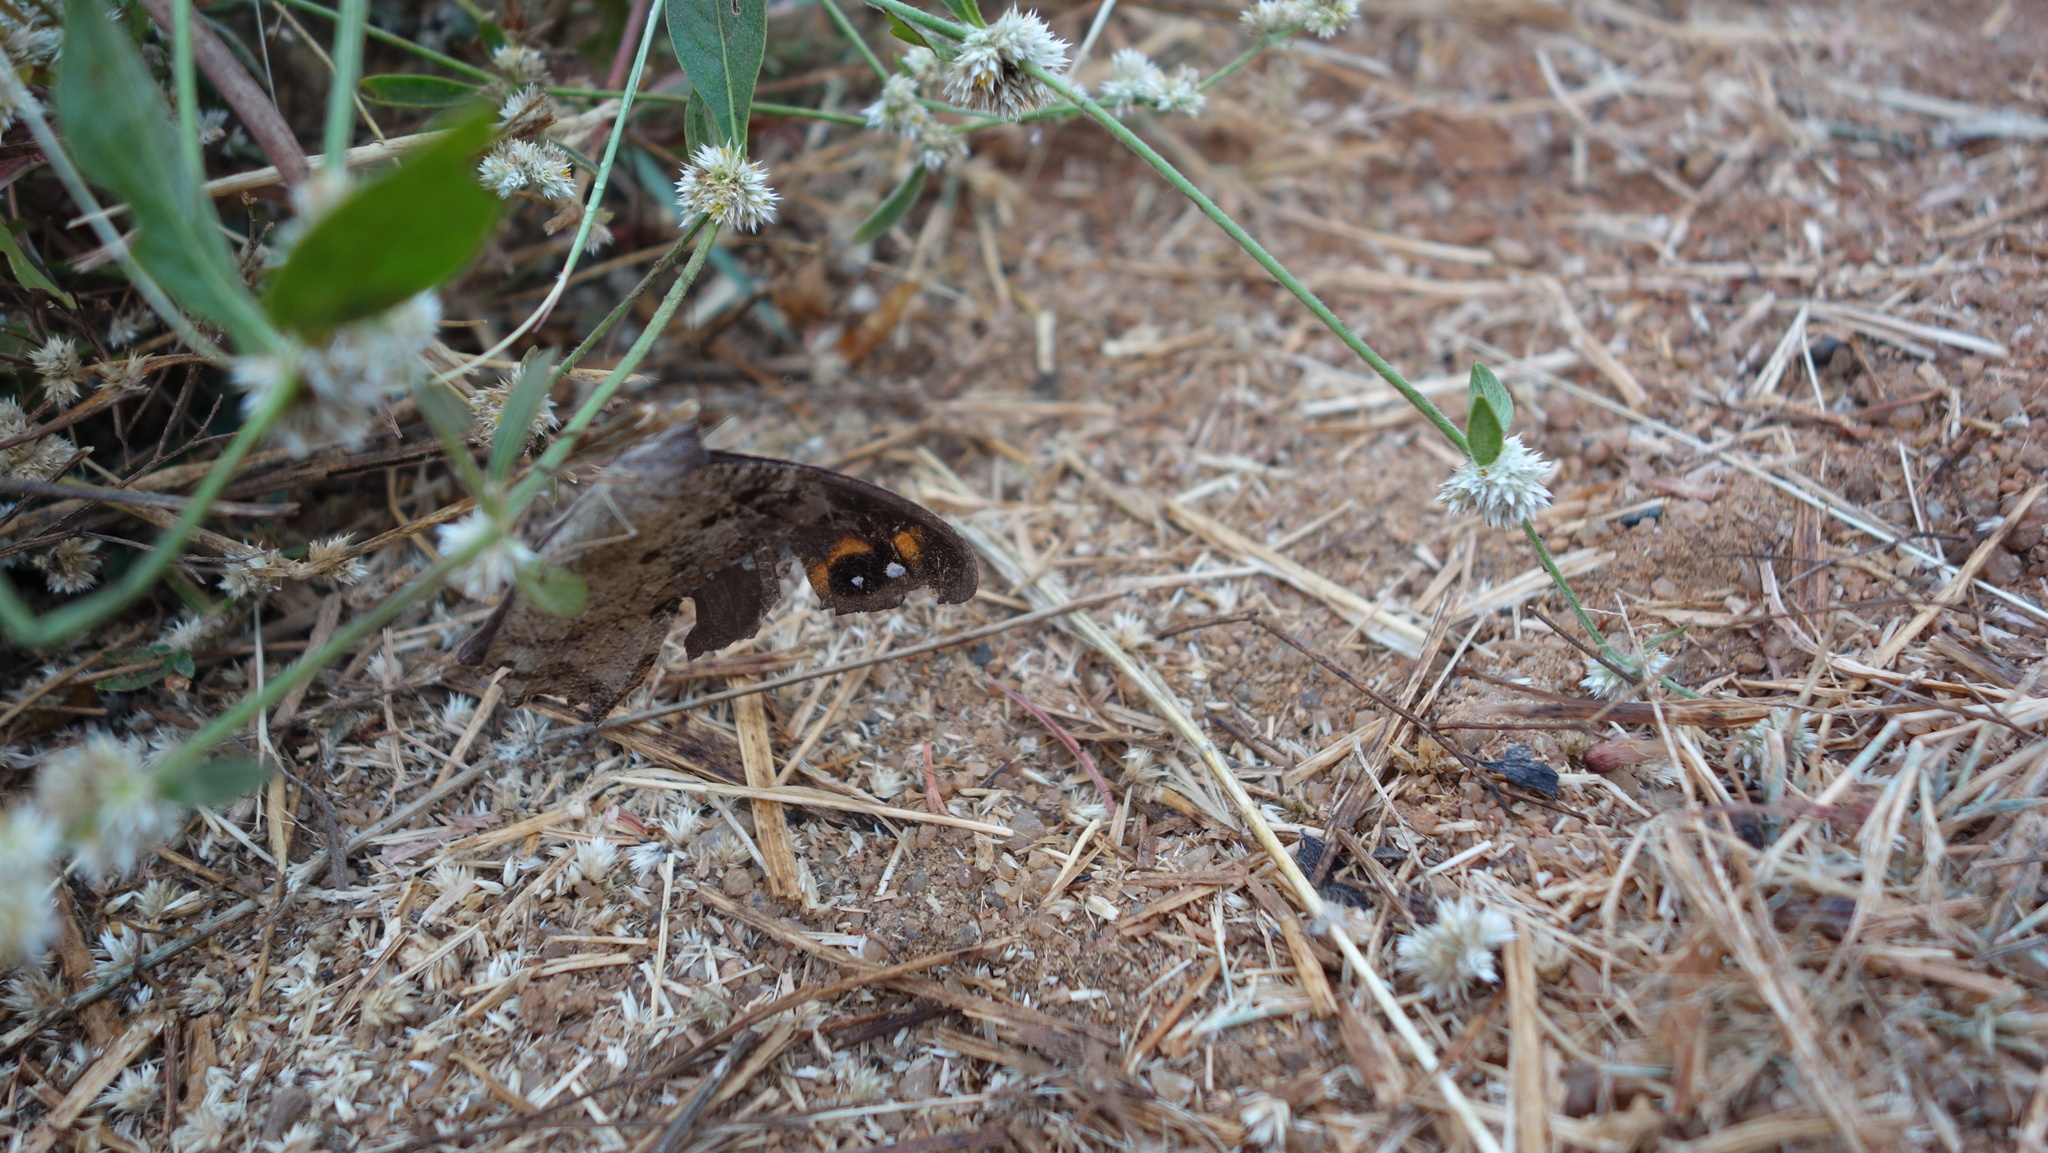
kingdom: Animalia
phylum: Arthropoda
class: Insecta
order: Lepidoptera
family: Nymphalidae
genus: Melanitis
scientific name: Melanitis leda
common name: Twilight brown
